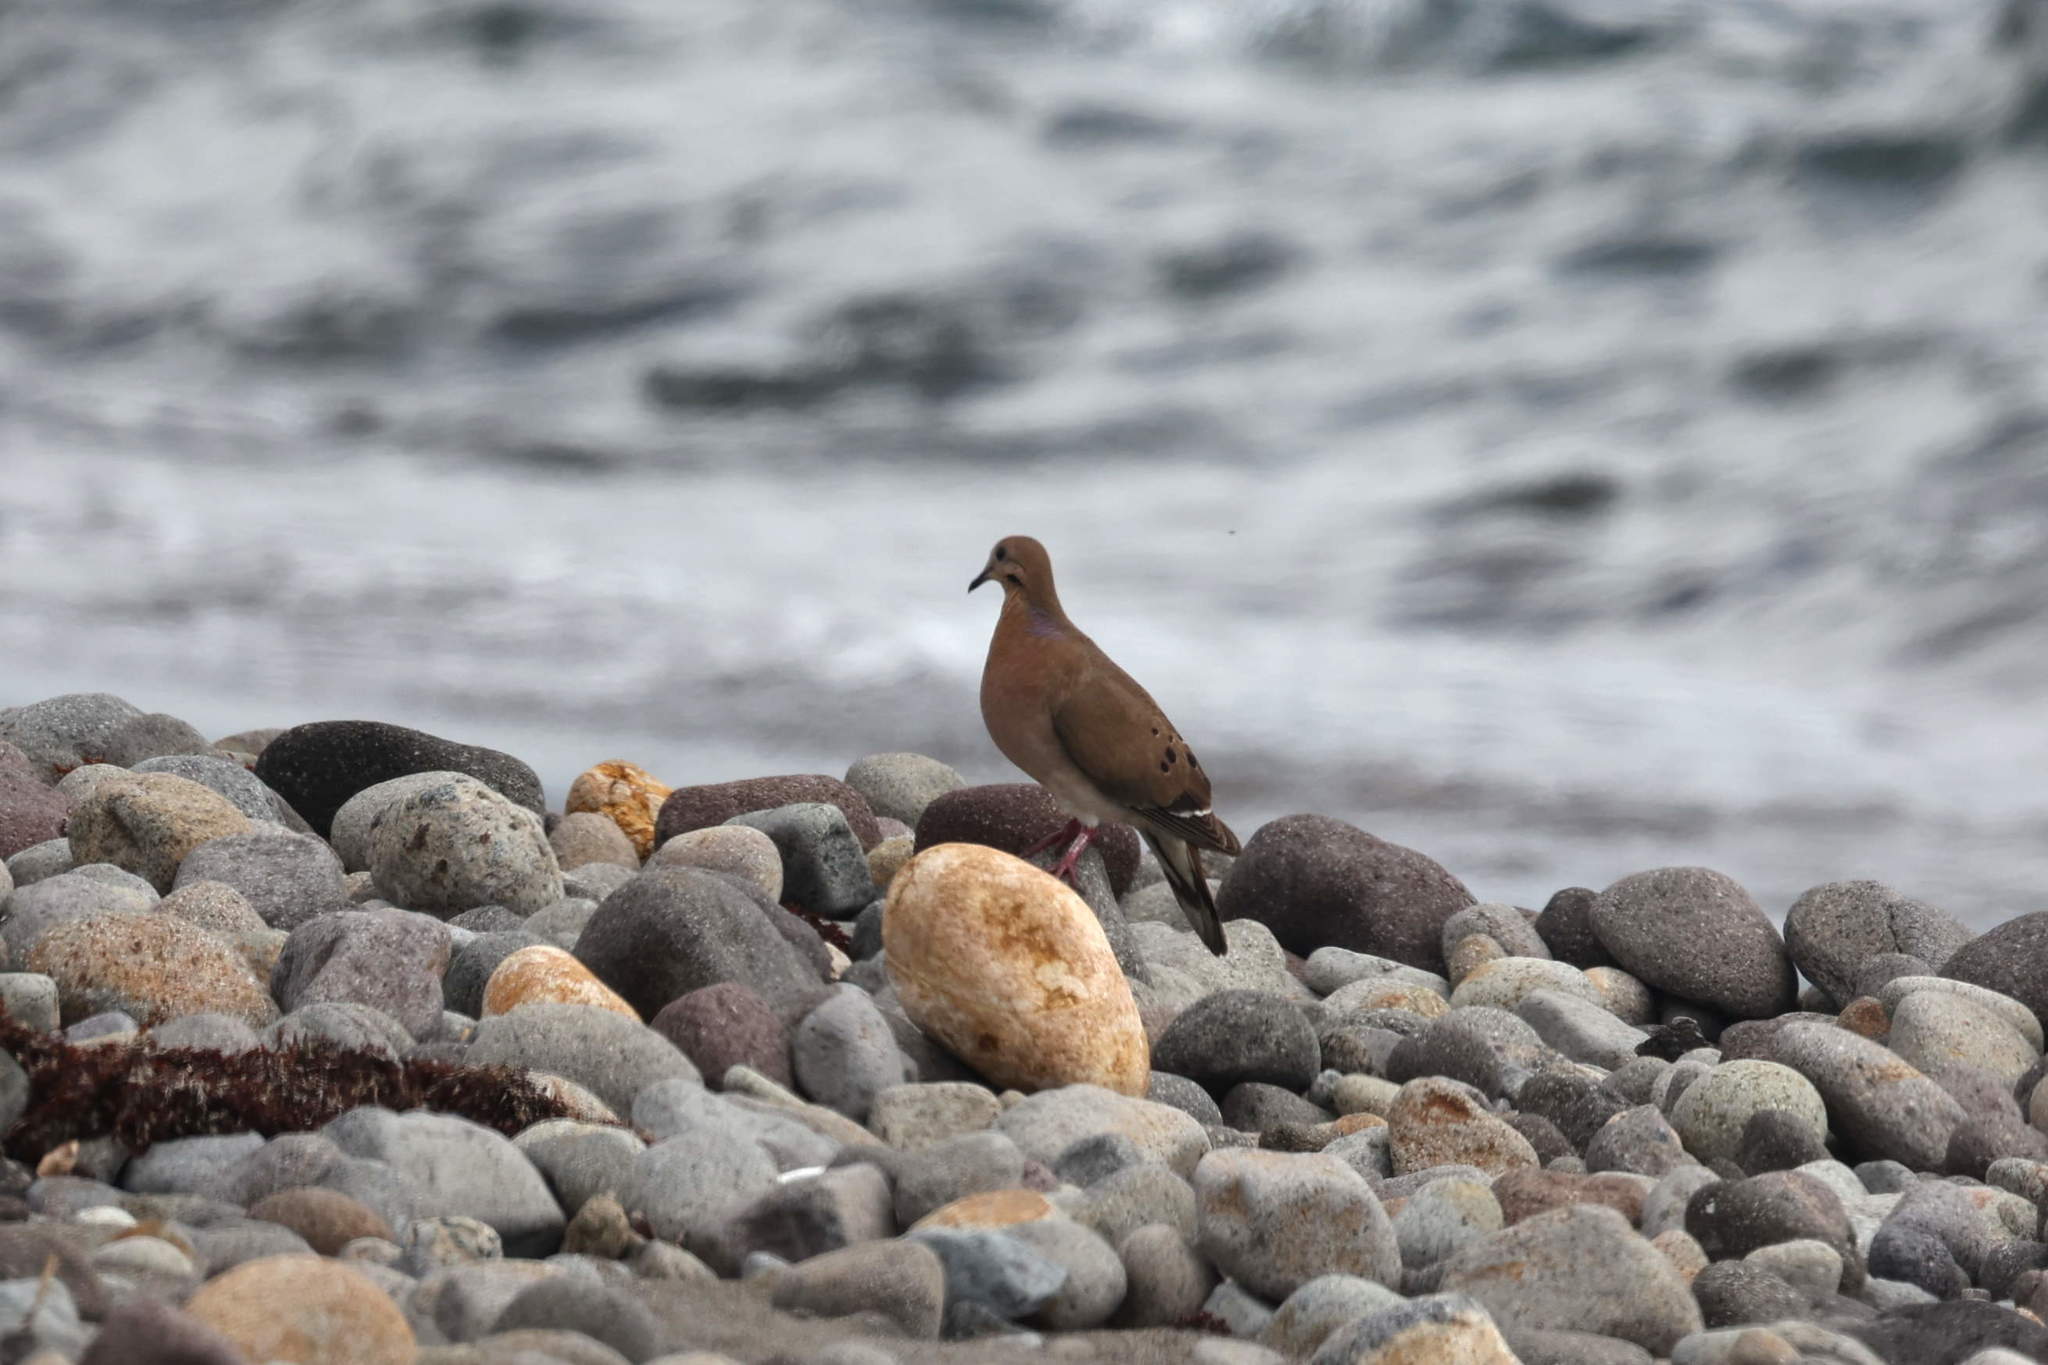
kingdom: Animalia
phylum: Chordata
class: Aves
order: Columbiformes
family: Columbidae
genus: Zenaida
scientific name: Zenaida aurita
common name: Zenaida dove
